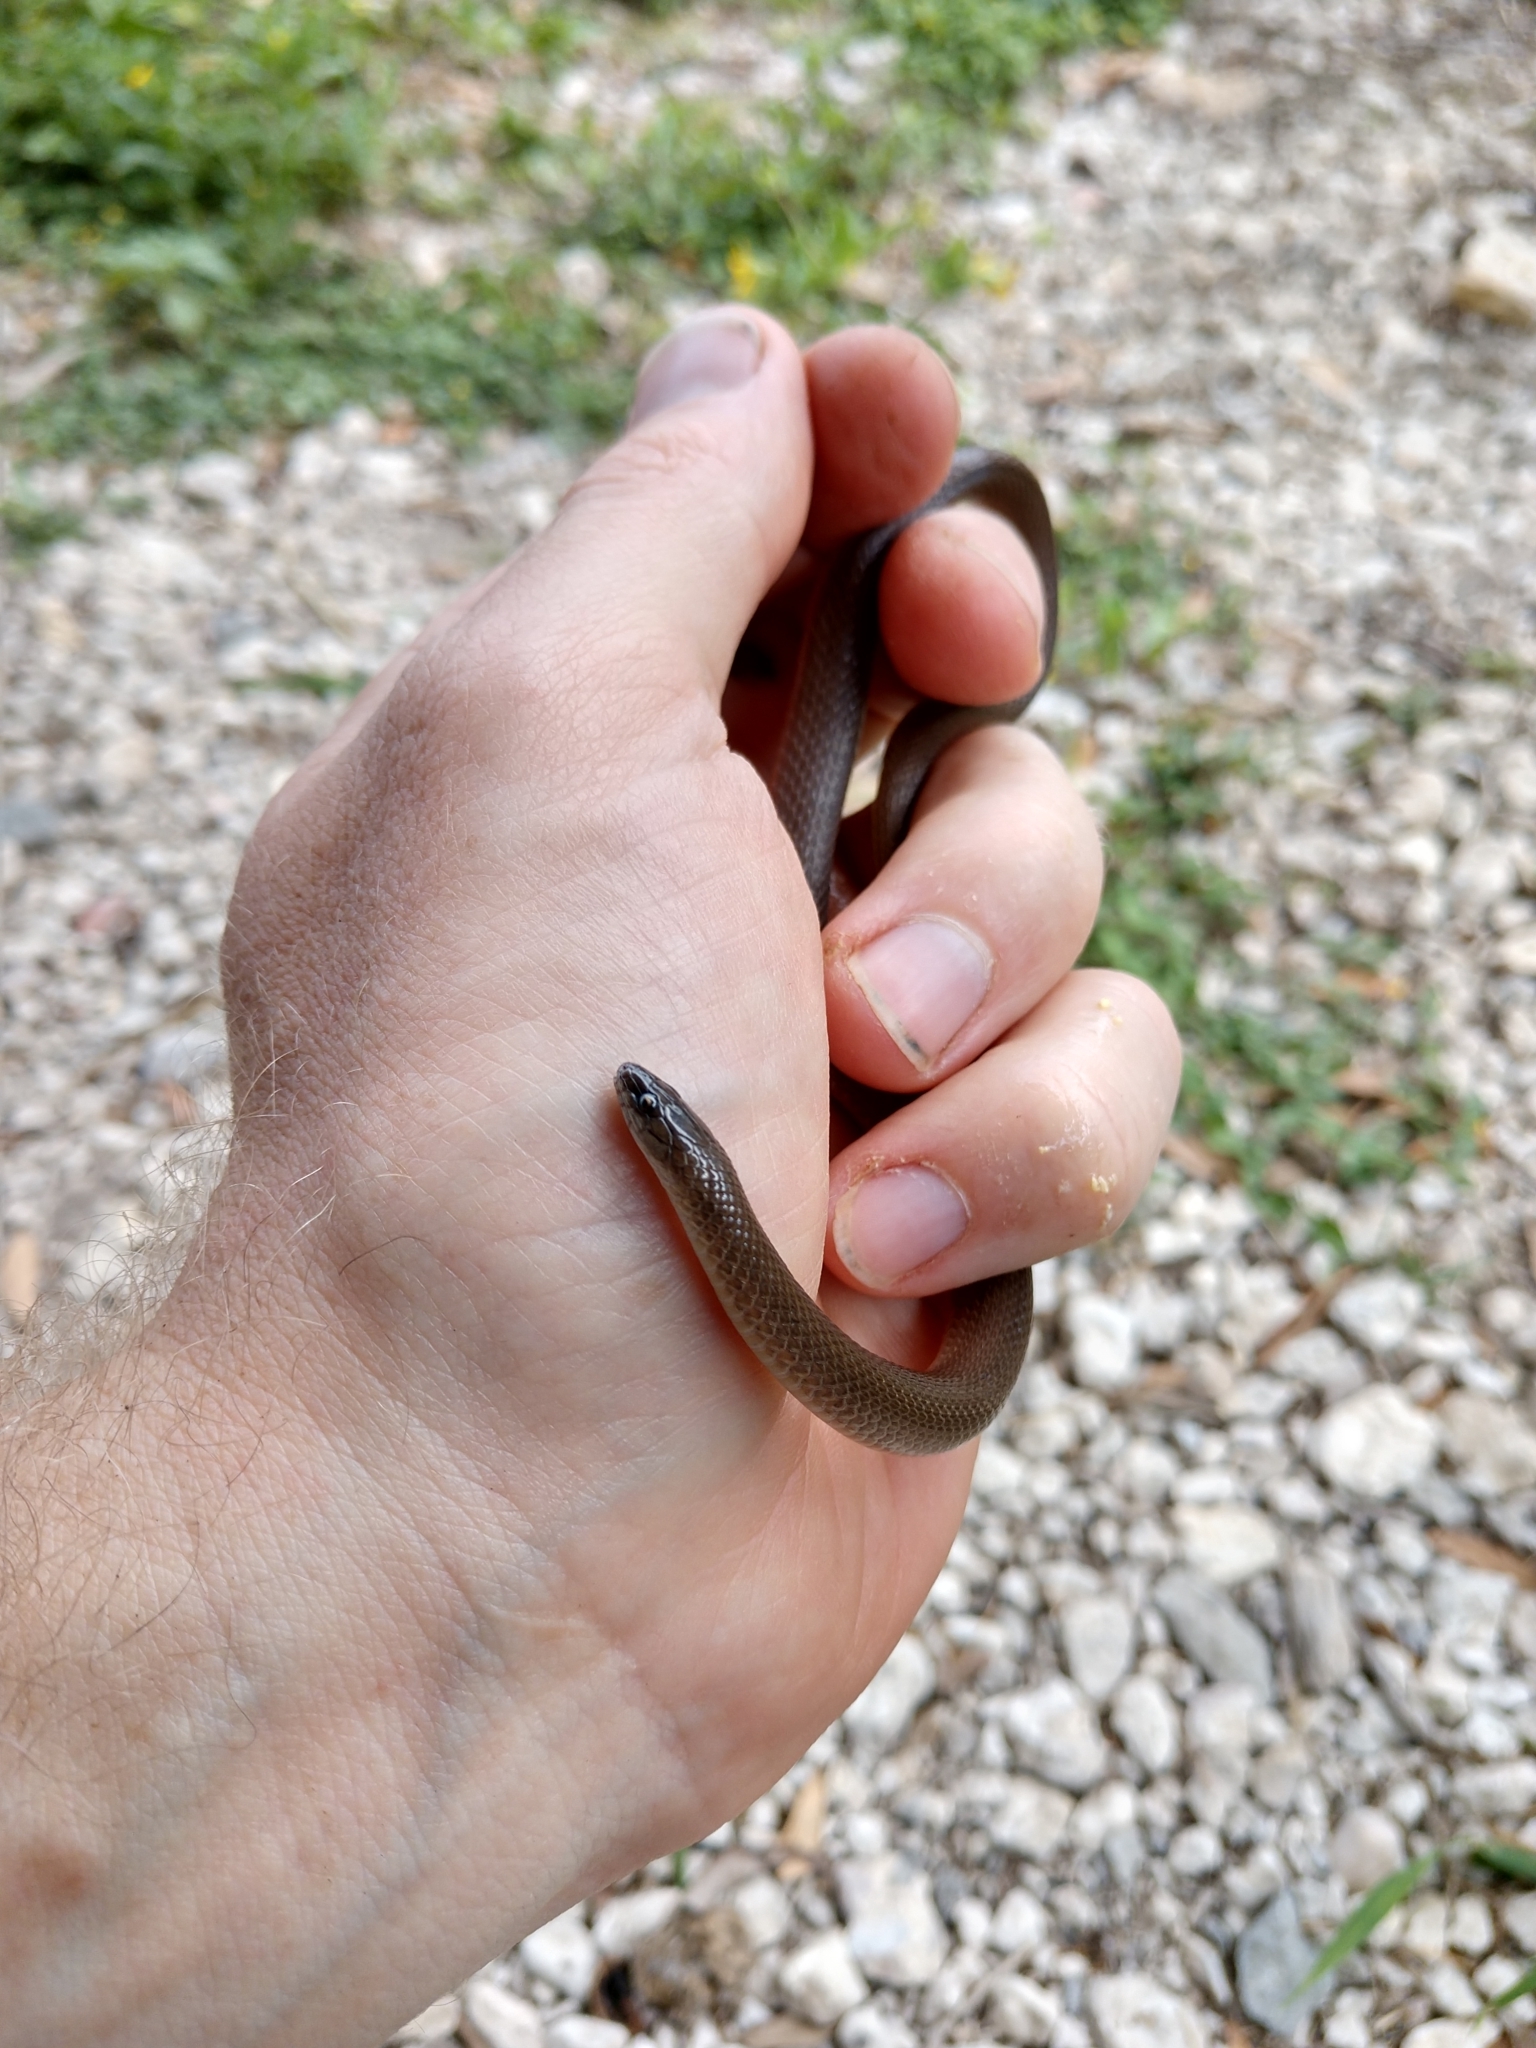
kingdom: Animalia
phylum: Chordata
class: Squamata
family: Colubridae
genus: Haldea
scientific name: Haldea striatula
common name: Rough earth snake
